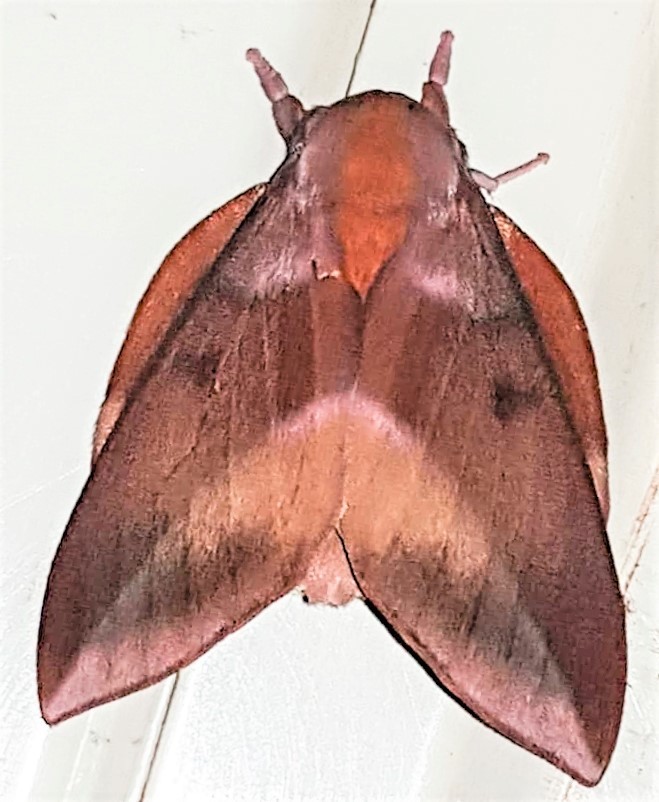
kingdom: Animalia
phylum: Arthropoda
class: Insecta
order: Lepidoptera
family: Saturniidae
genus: Othorene
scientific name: Othorene purpurascens
